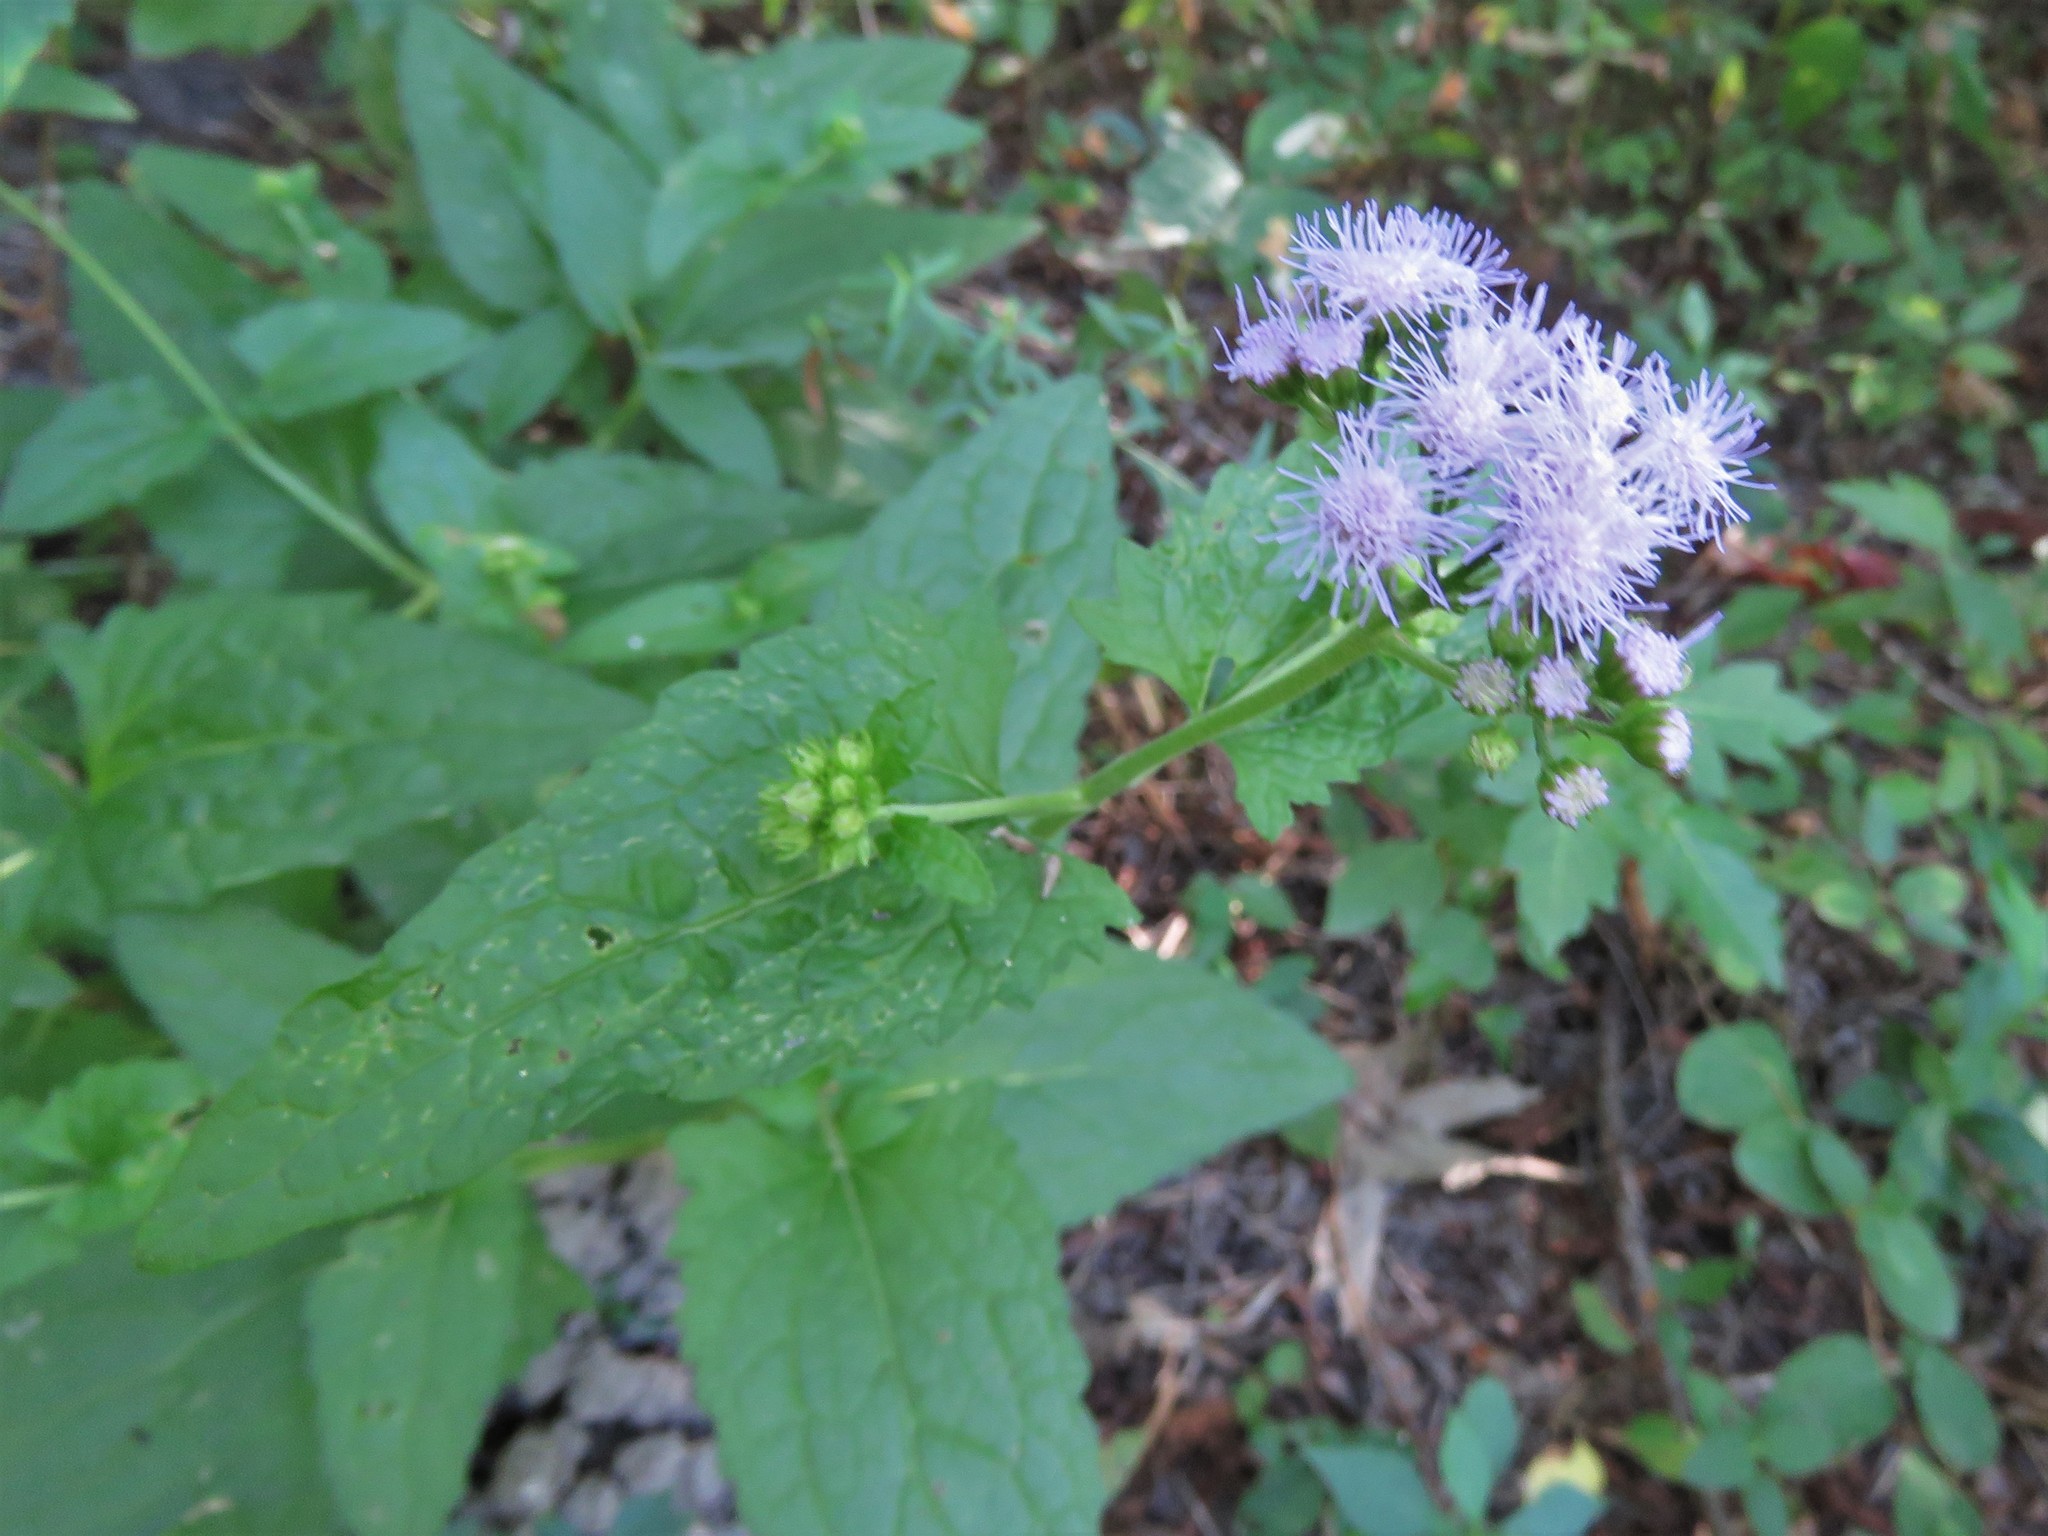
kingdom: Plantae
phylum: Tracheophyta
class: Magnoliopsida
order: Asterales
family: Asteraceae
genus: Conoclinium
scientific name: Conoclinium coelestinum
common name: Blue mistflower
